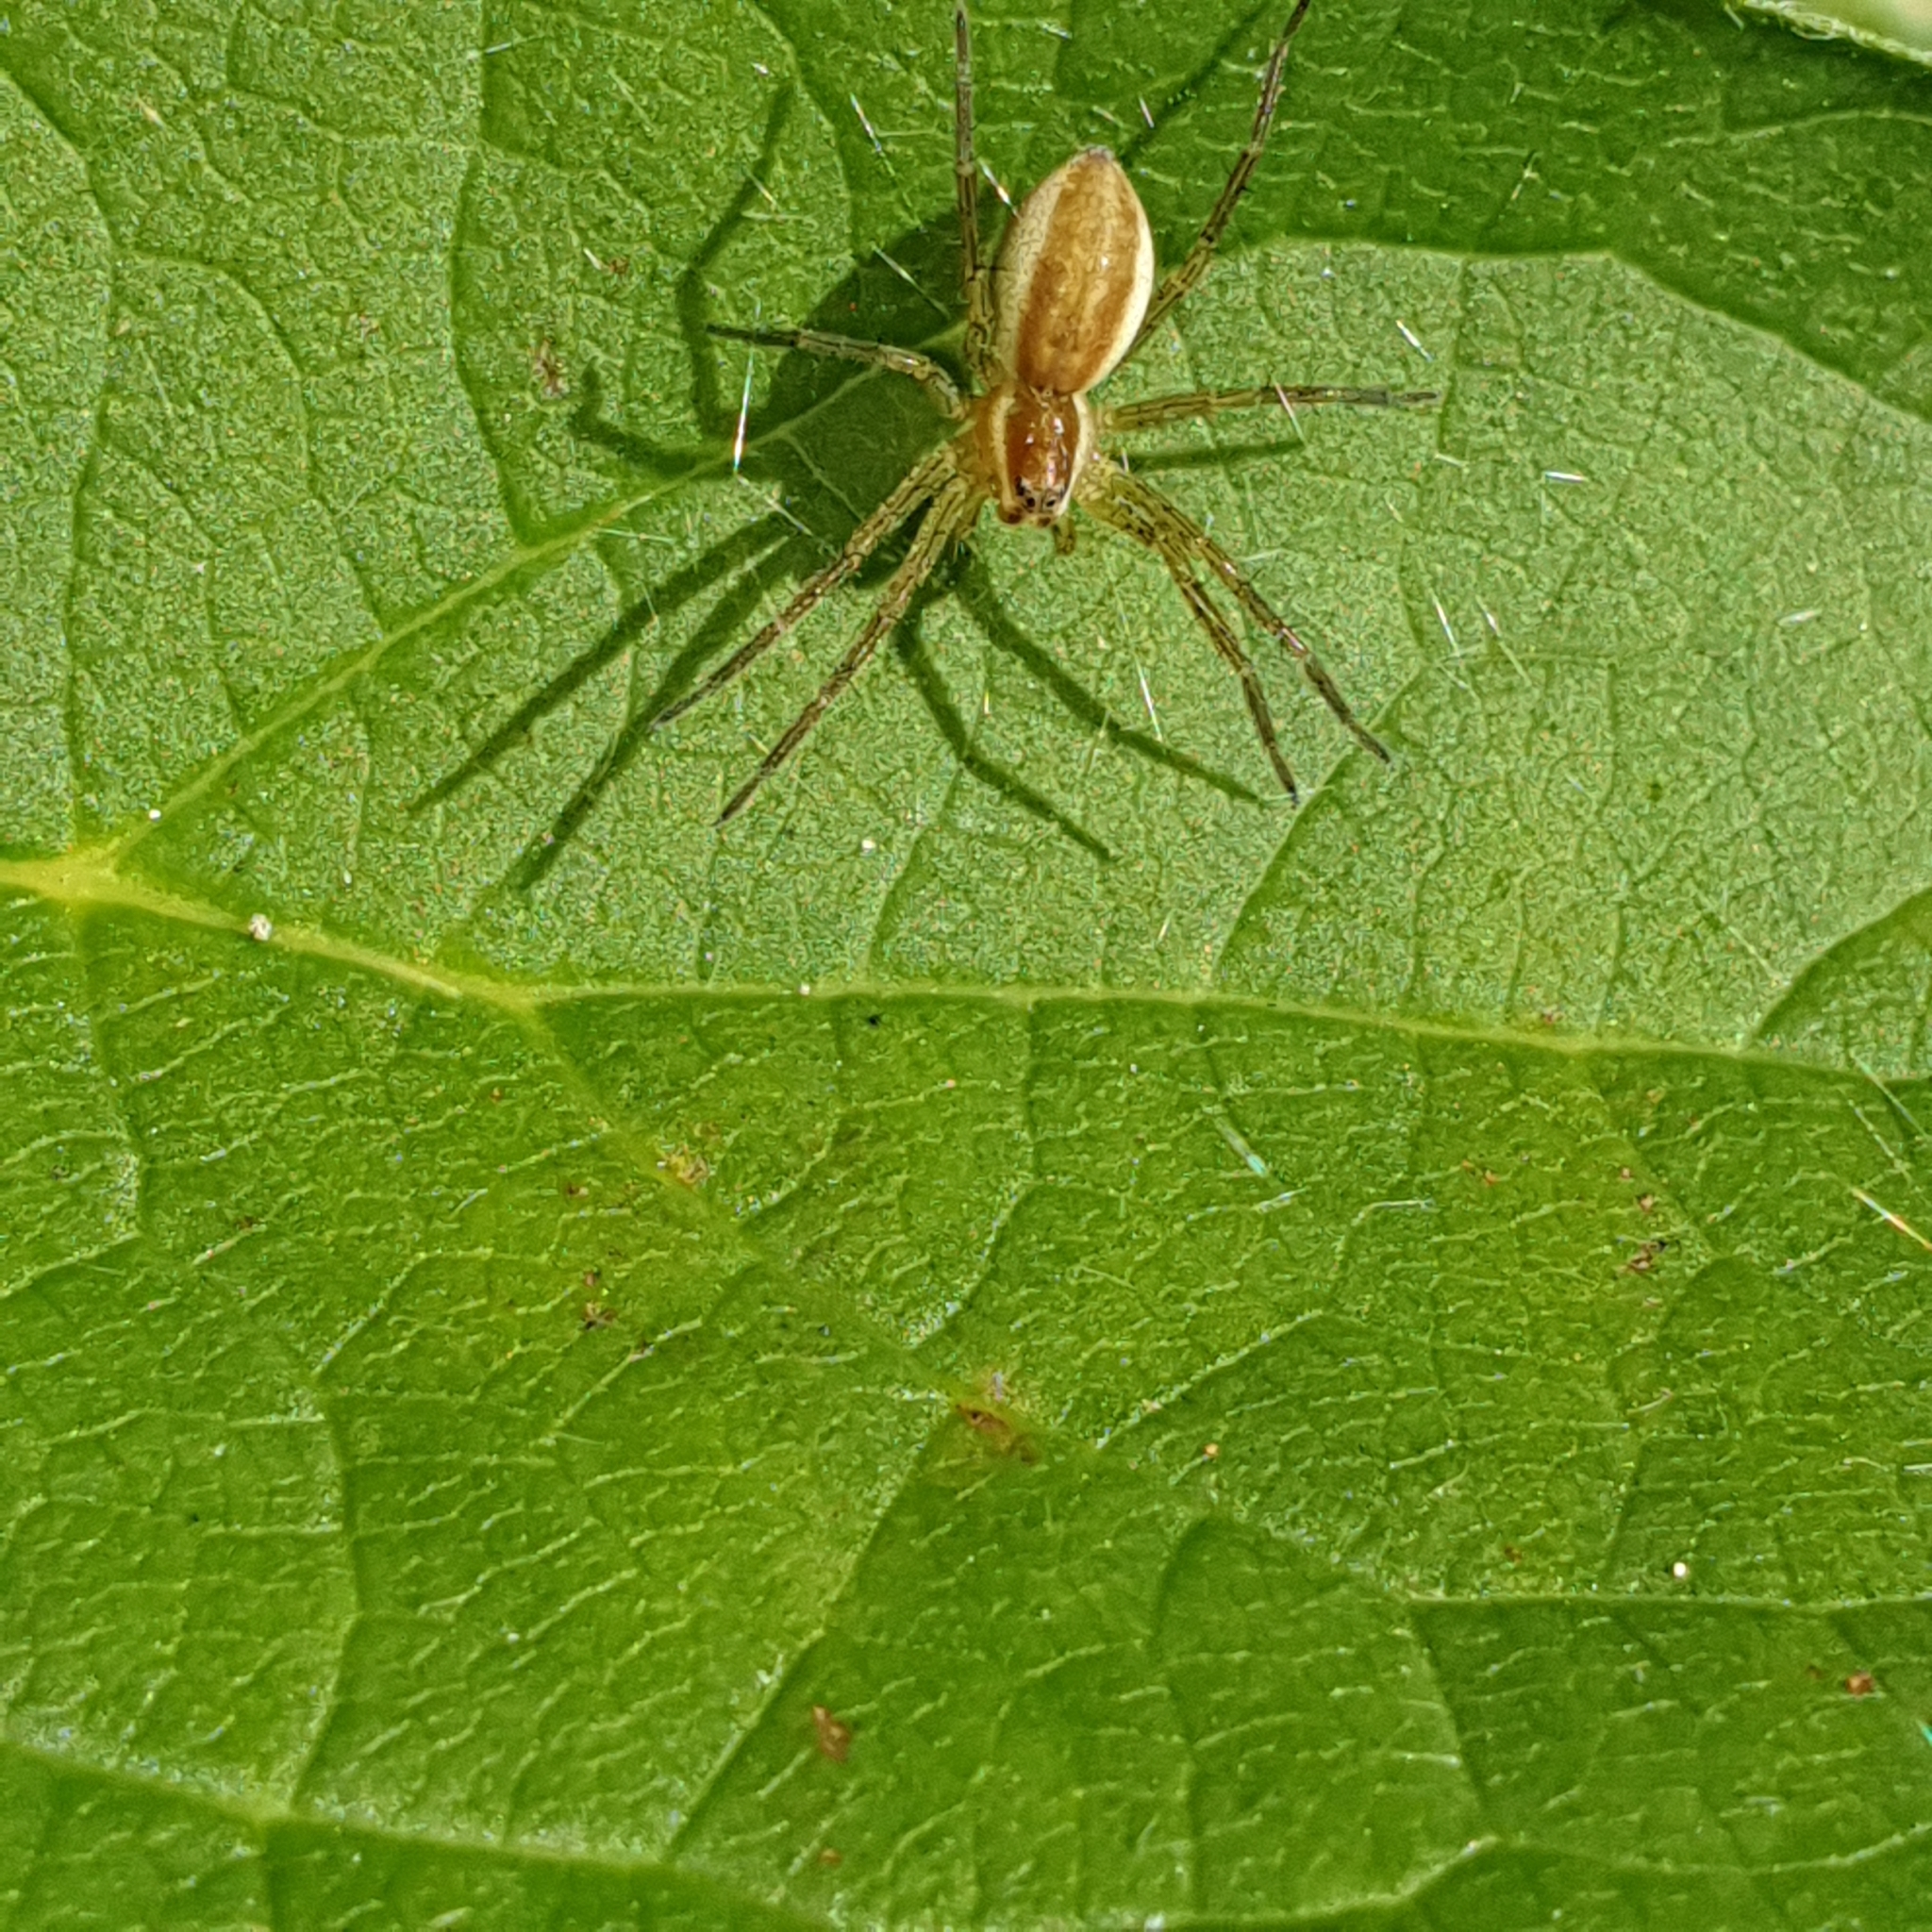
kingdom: Animalia
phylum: Arthropoda
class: Arachnida
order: Araneae
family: Pisauridae
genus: Dolomedes
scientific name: Dolomedes fimbriatus
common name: Raft spider
